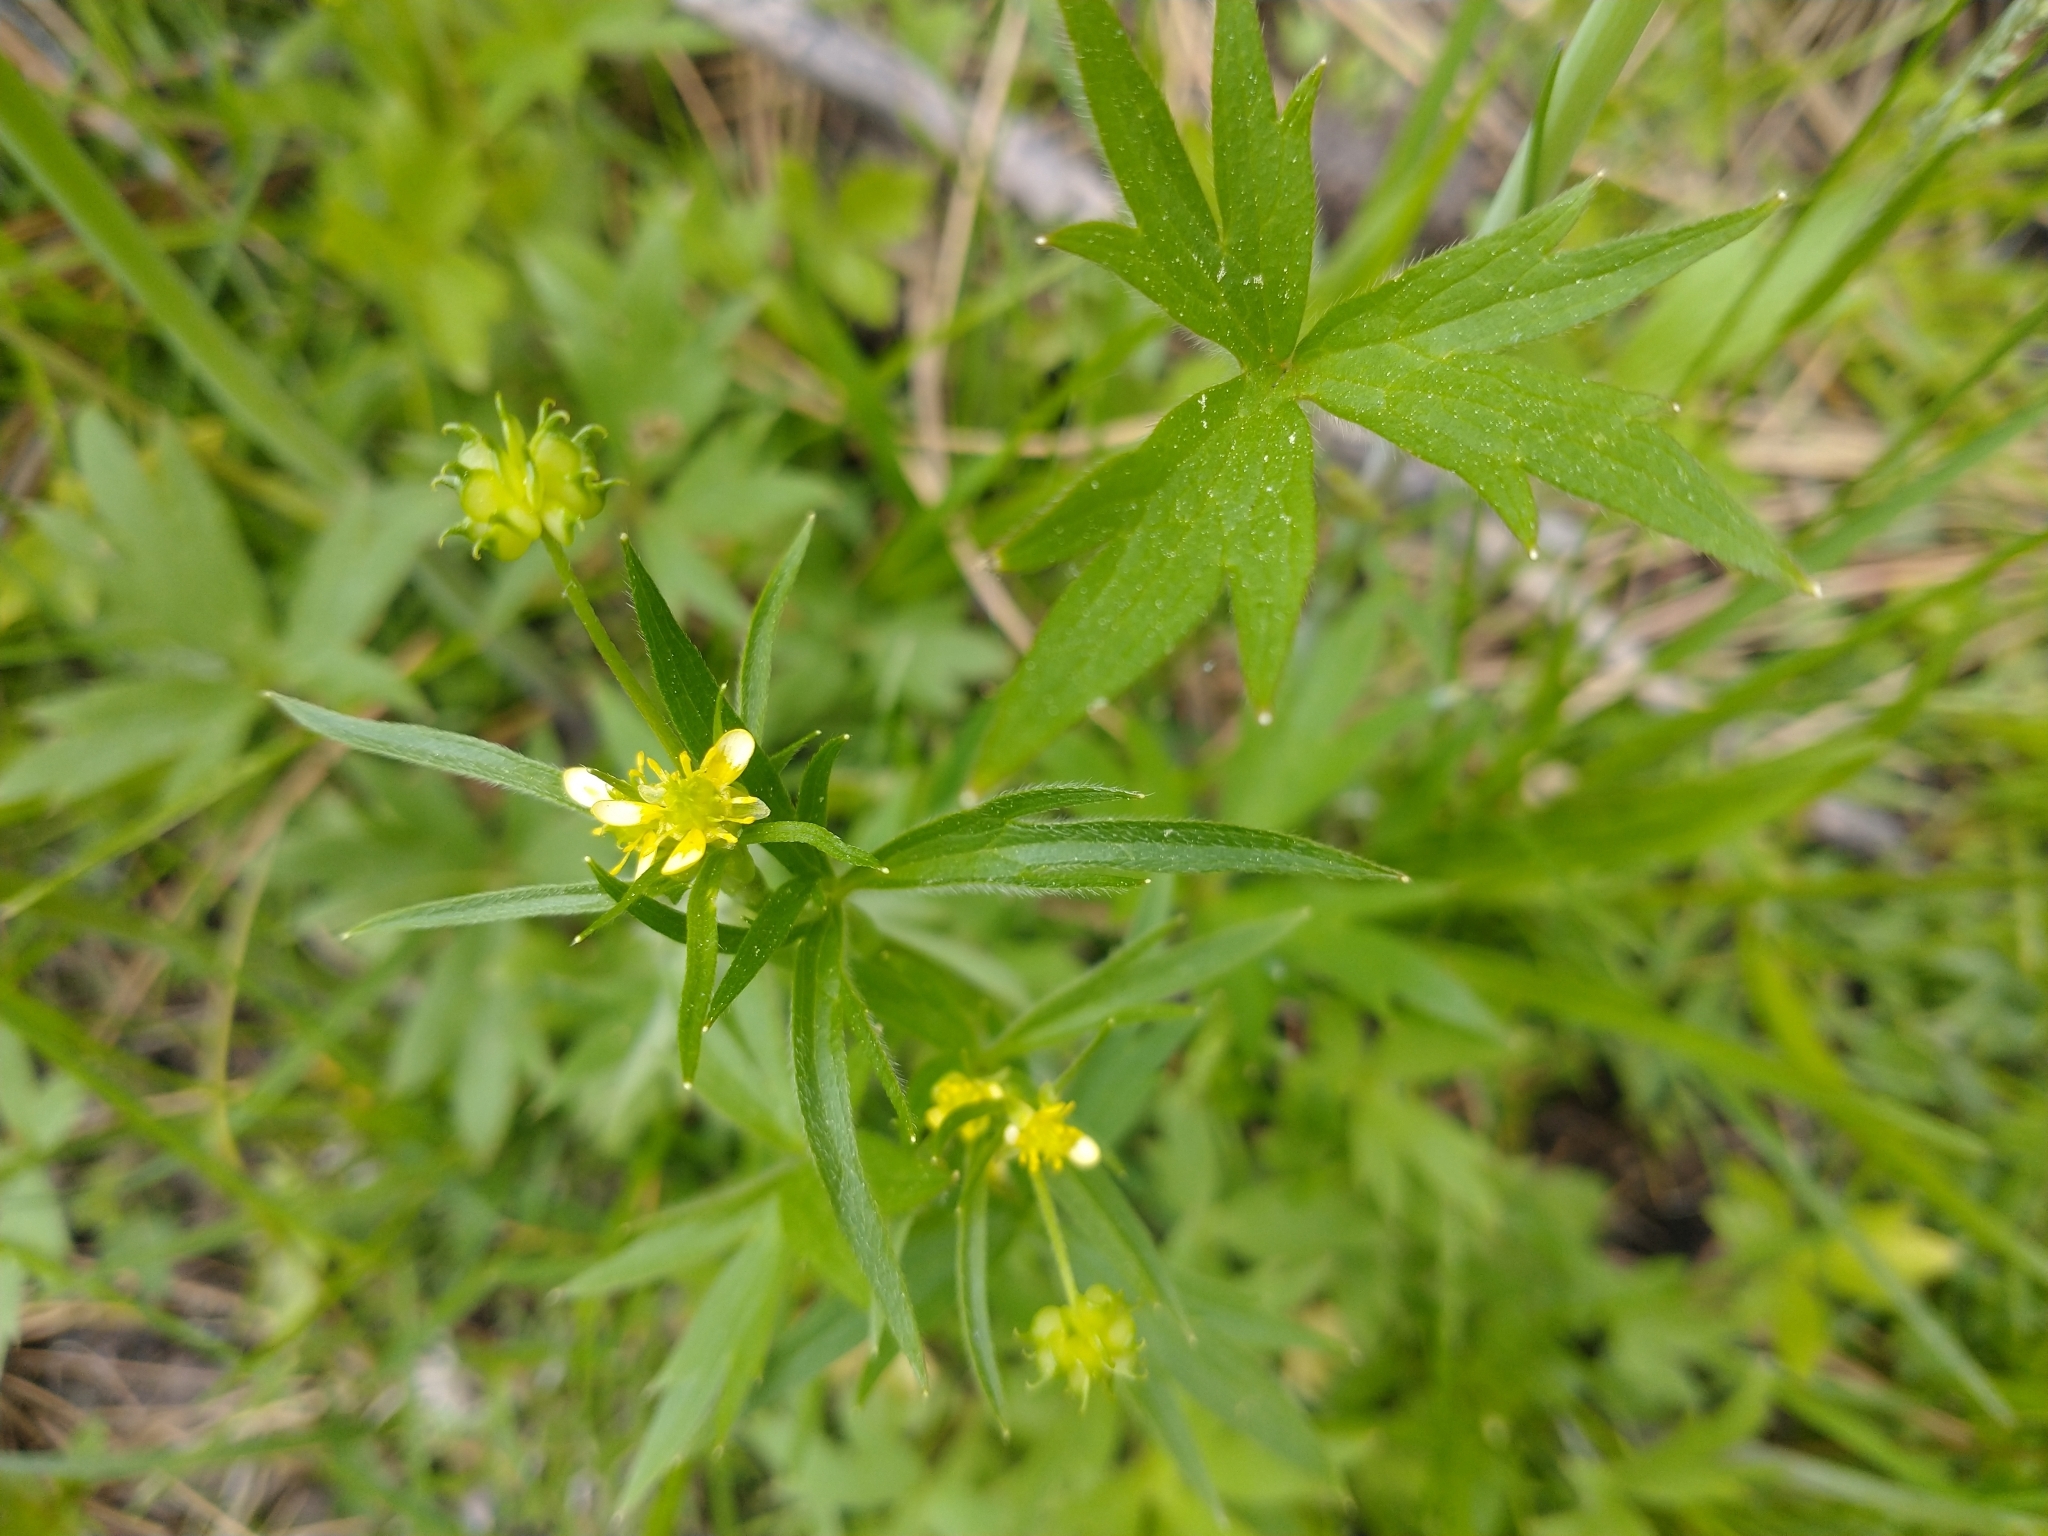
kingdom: Plantae
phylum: Tracheophyta
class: Magnoliopsida
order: Ranunculales
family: Ranunculaceae
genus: Ranunculus
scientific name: Ranunculus uncinatus
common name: Little buttercup
